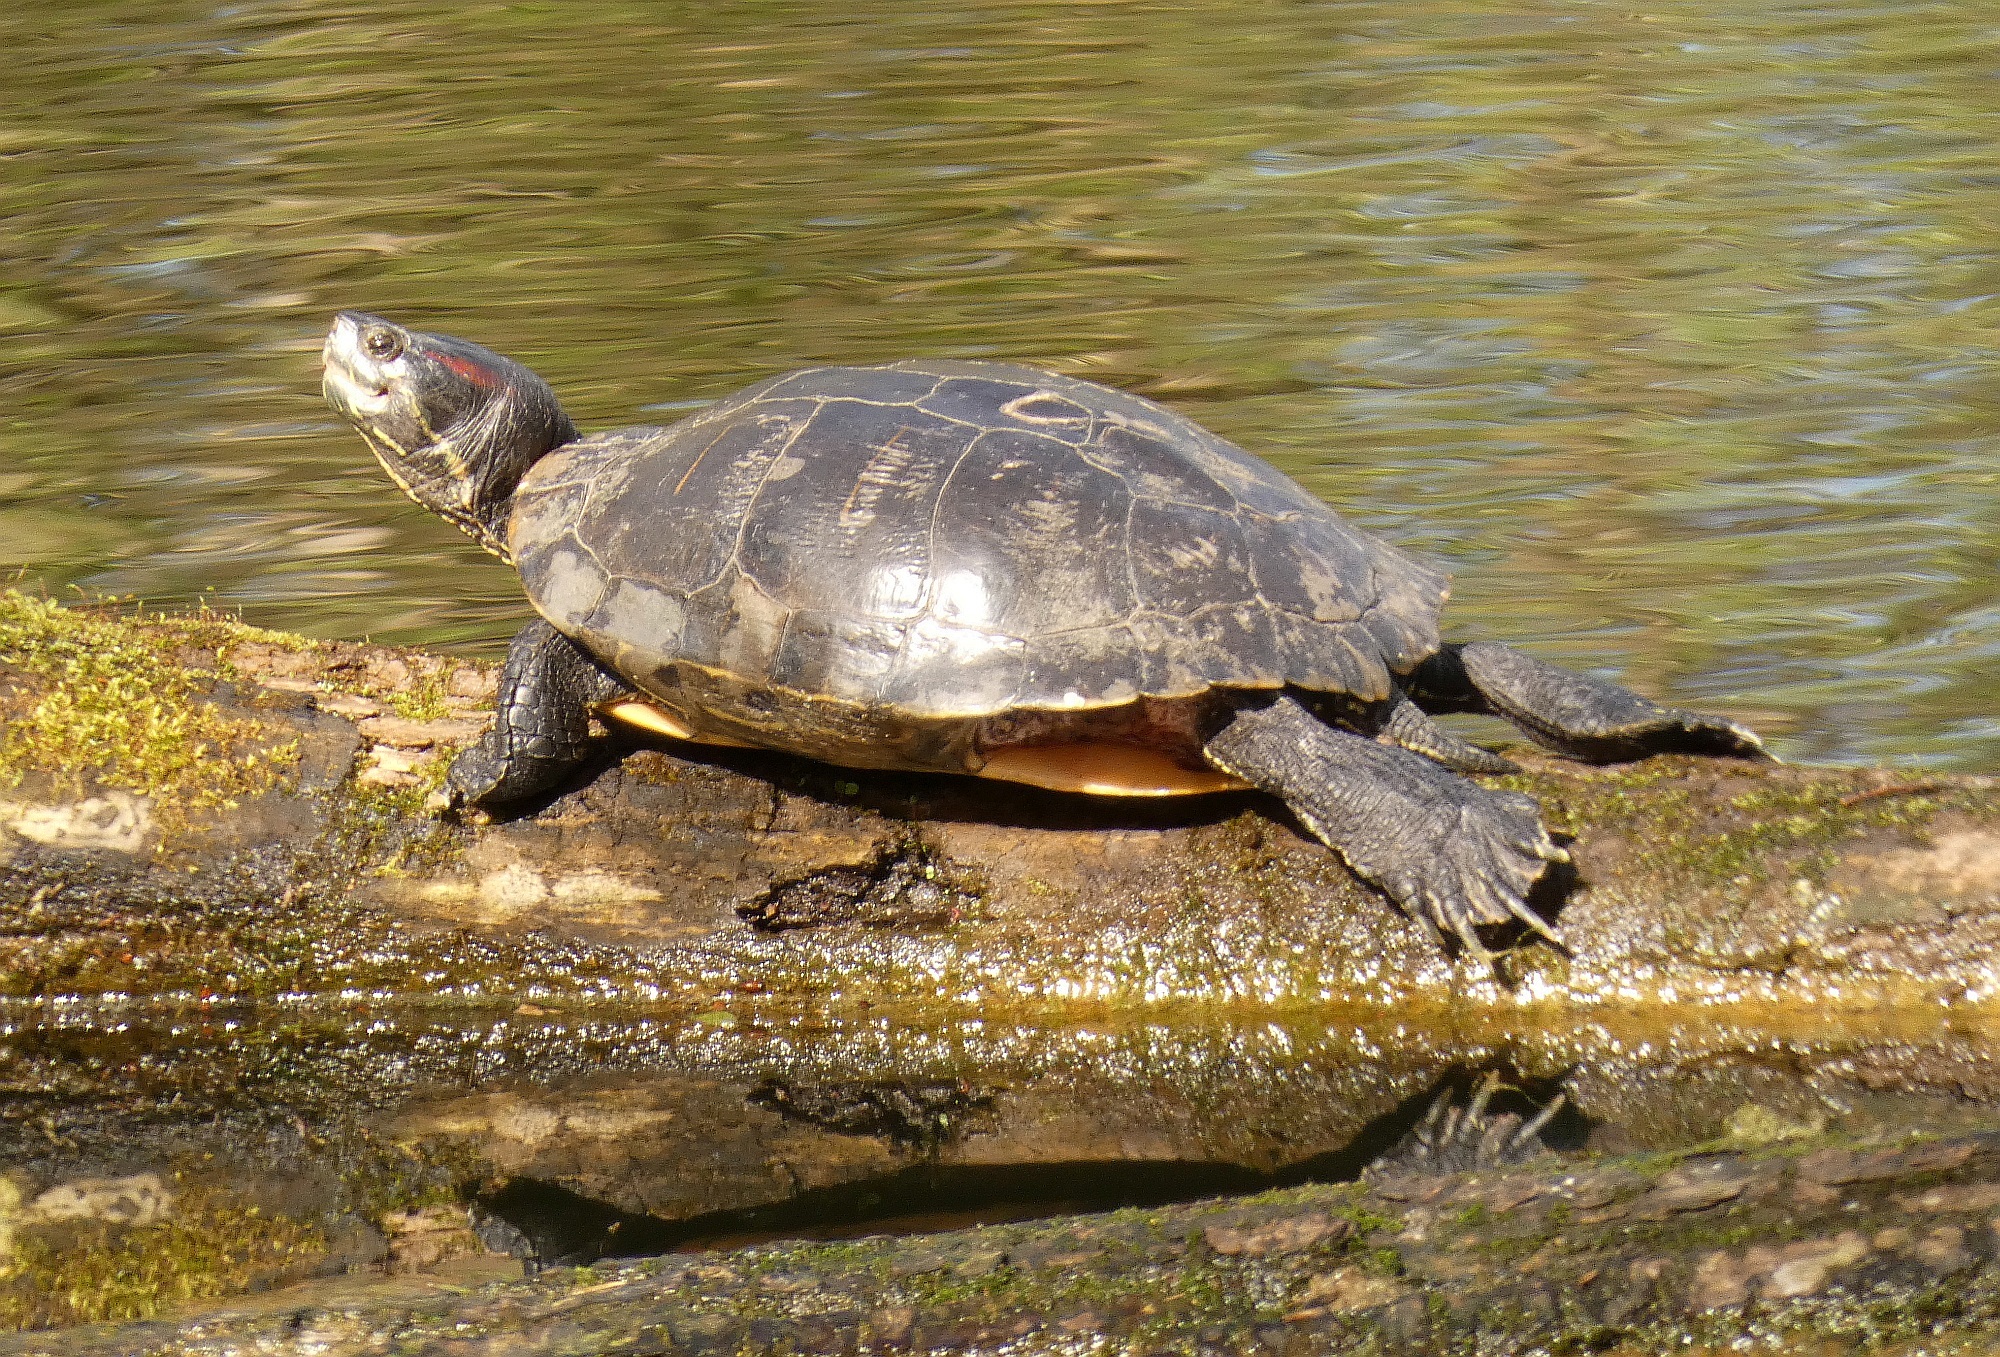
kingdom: Animalia
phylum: Chordata
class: Testudines
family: Emydidae
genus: Trachemys
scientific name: Trachemys scripta
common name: Slider
